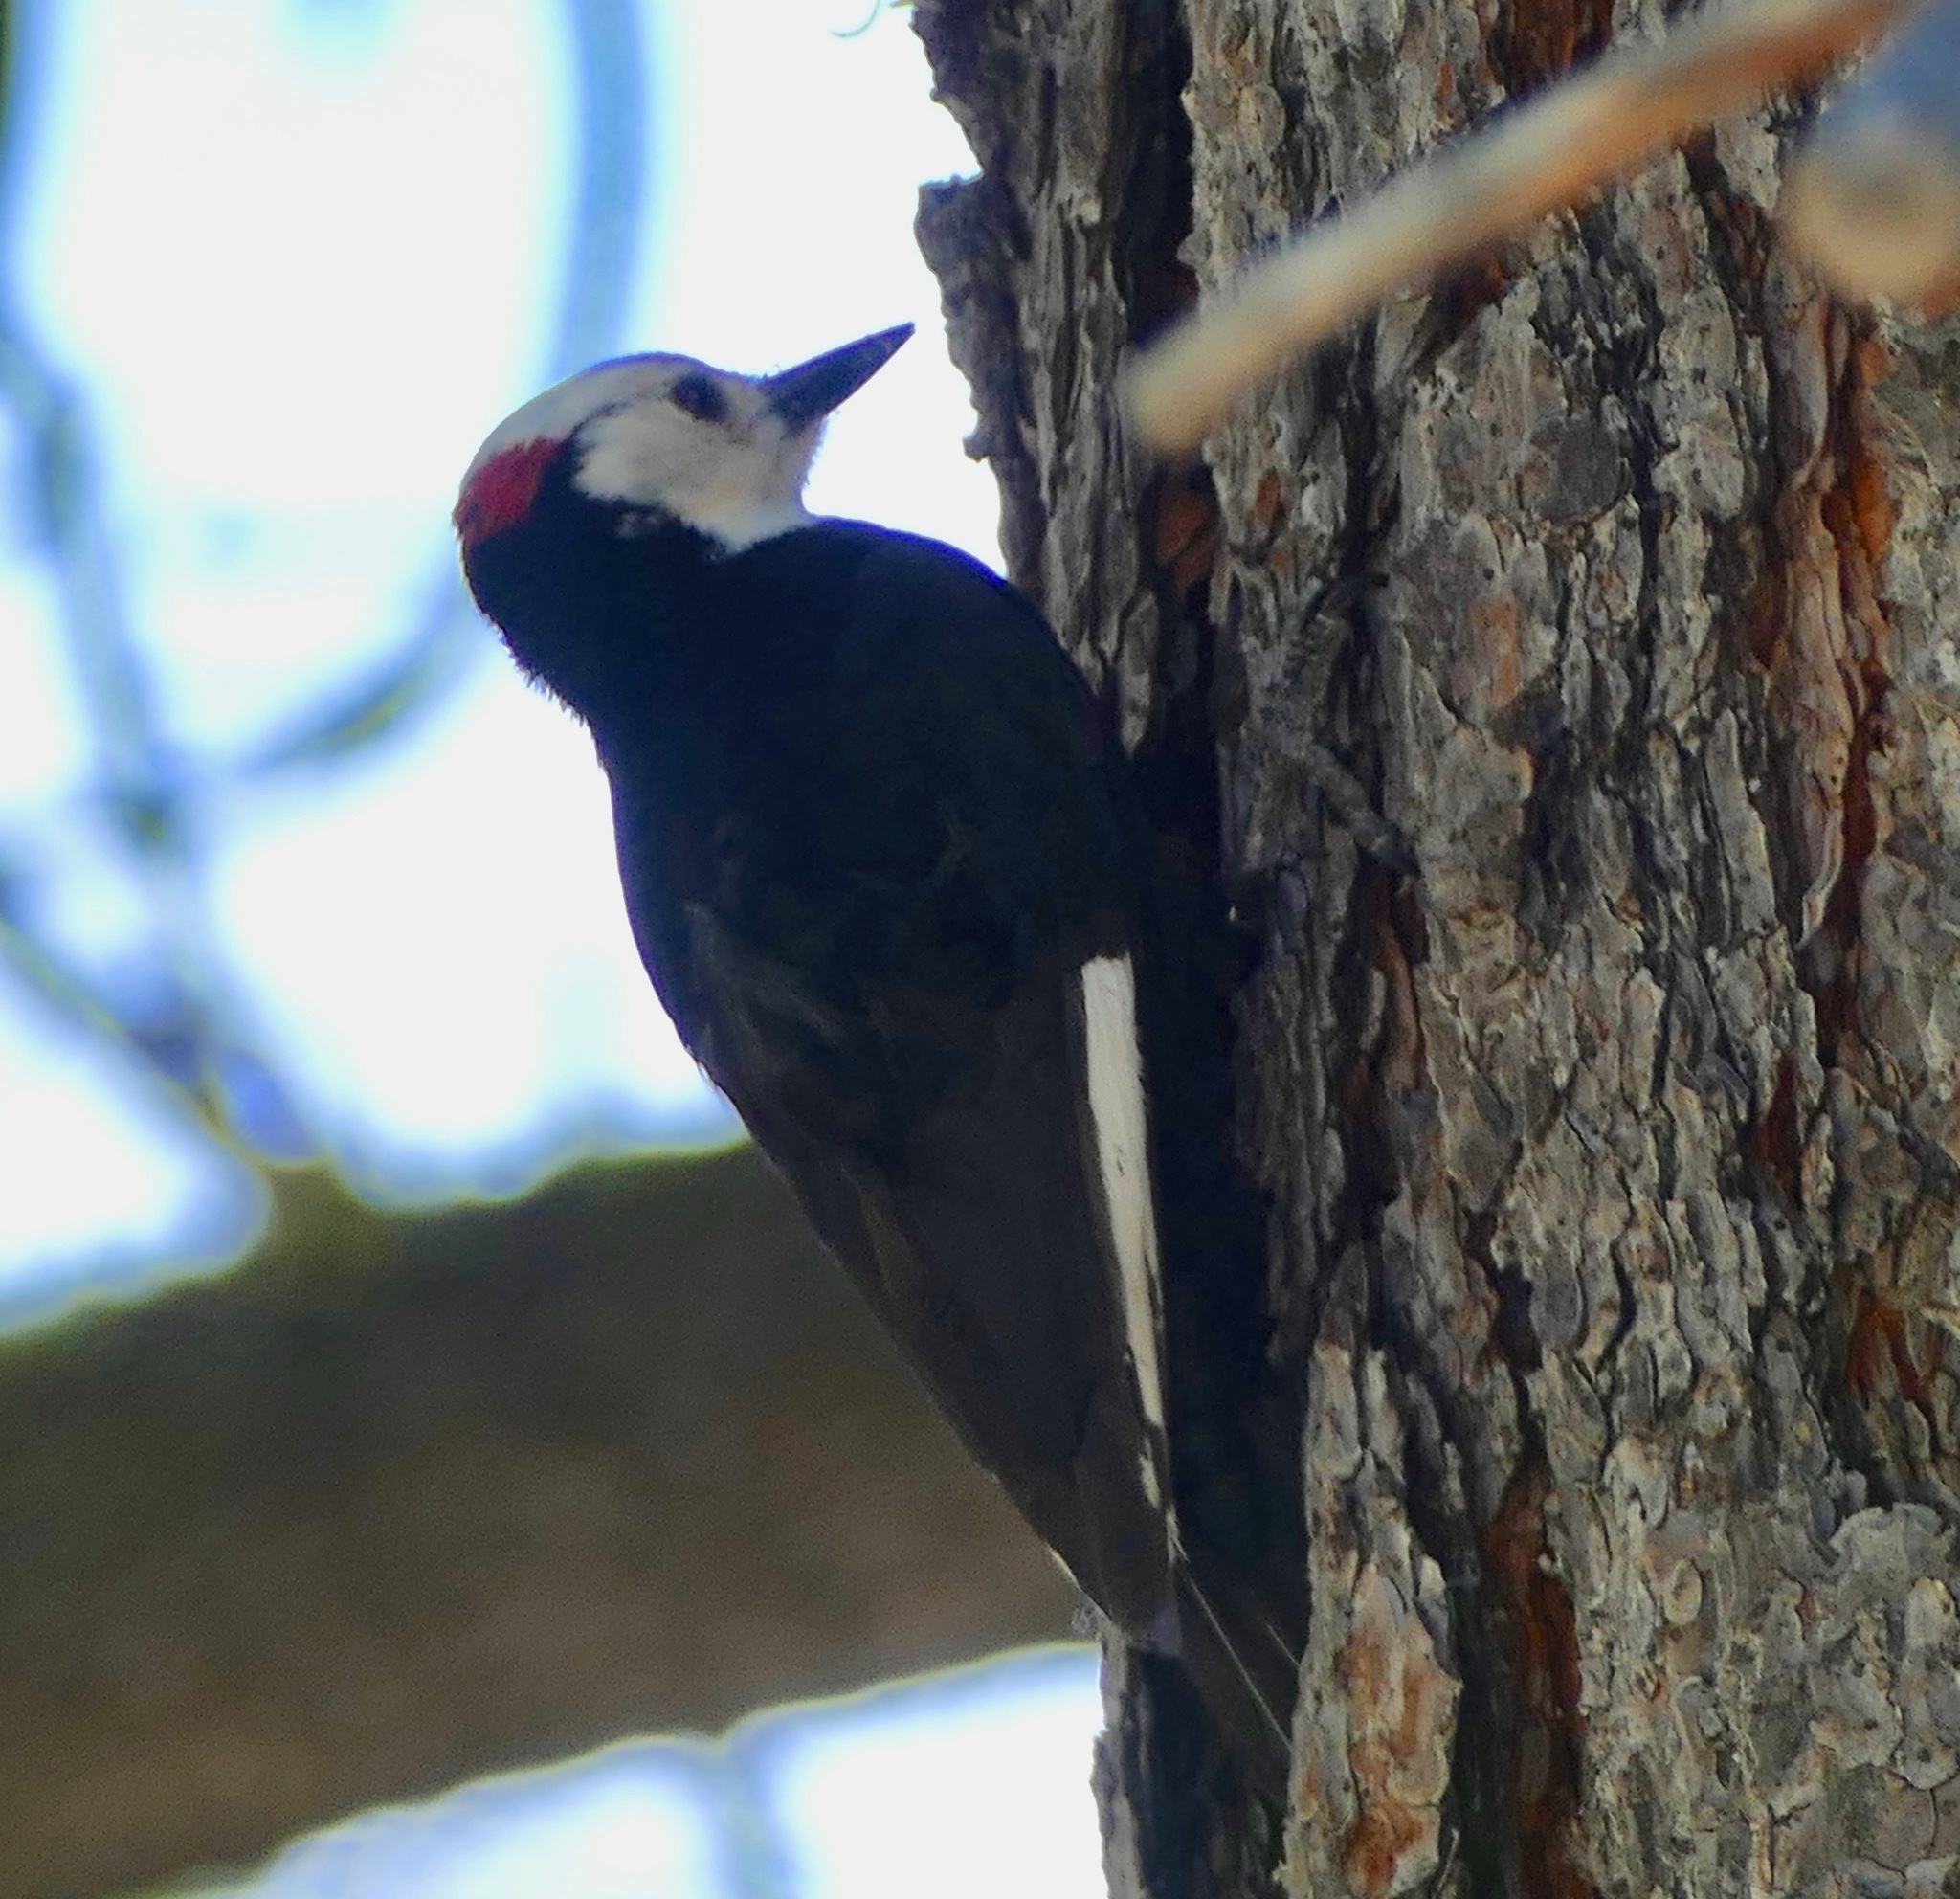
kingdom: Animalia
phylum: Chordata
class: Aves
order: Piciformes
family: Picidae
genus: Leuconotopicus
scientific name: Leuconotopicus albolarvatus
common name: White-headed woodpecker
